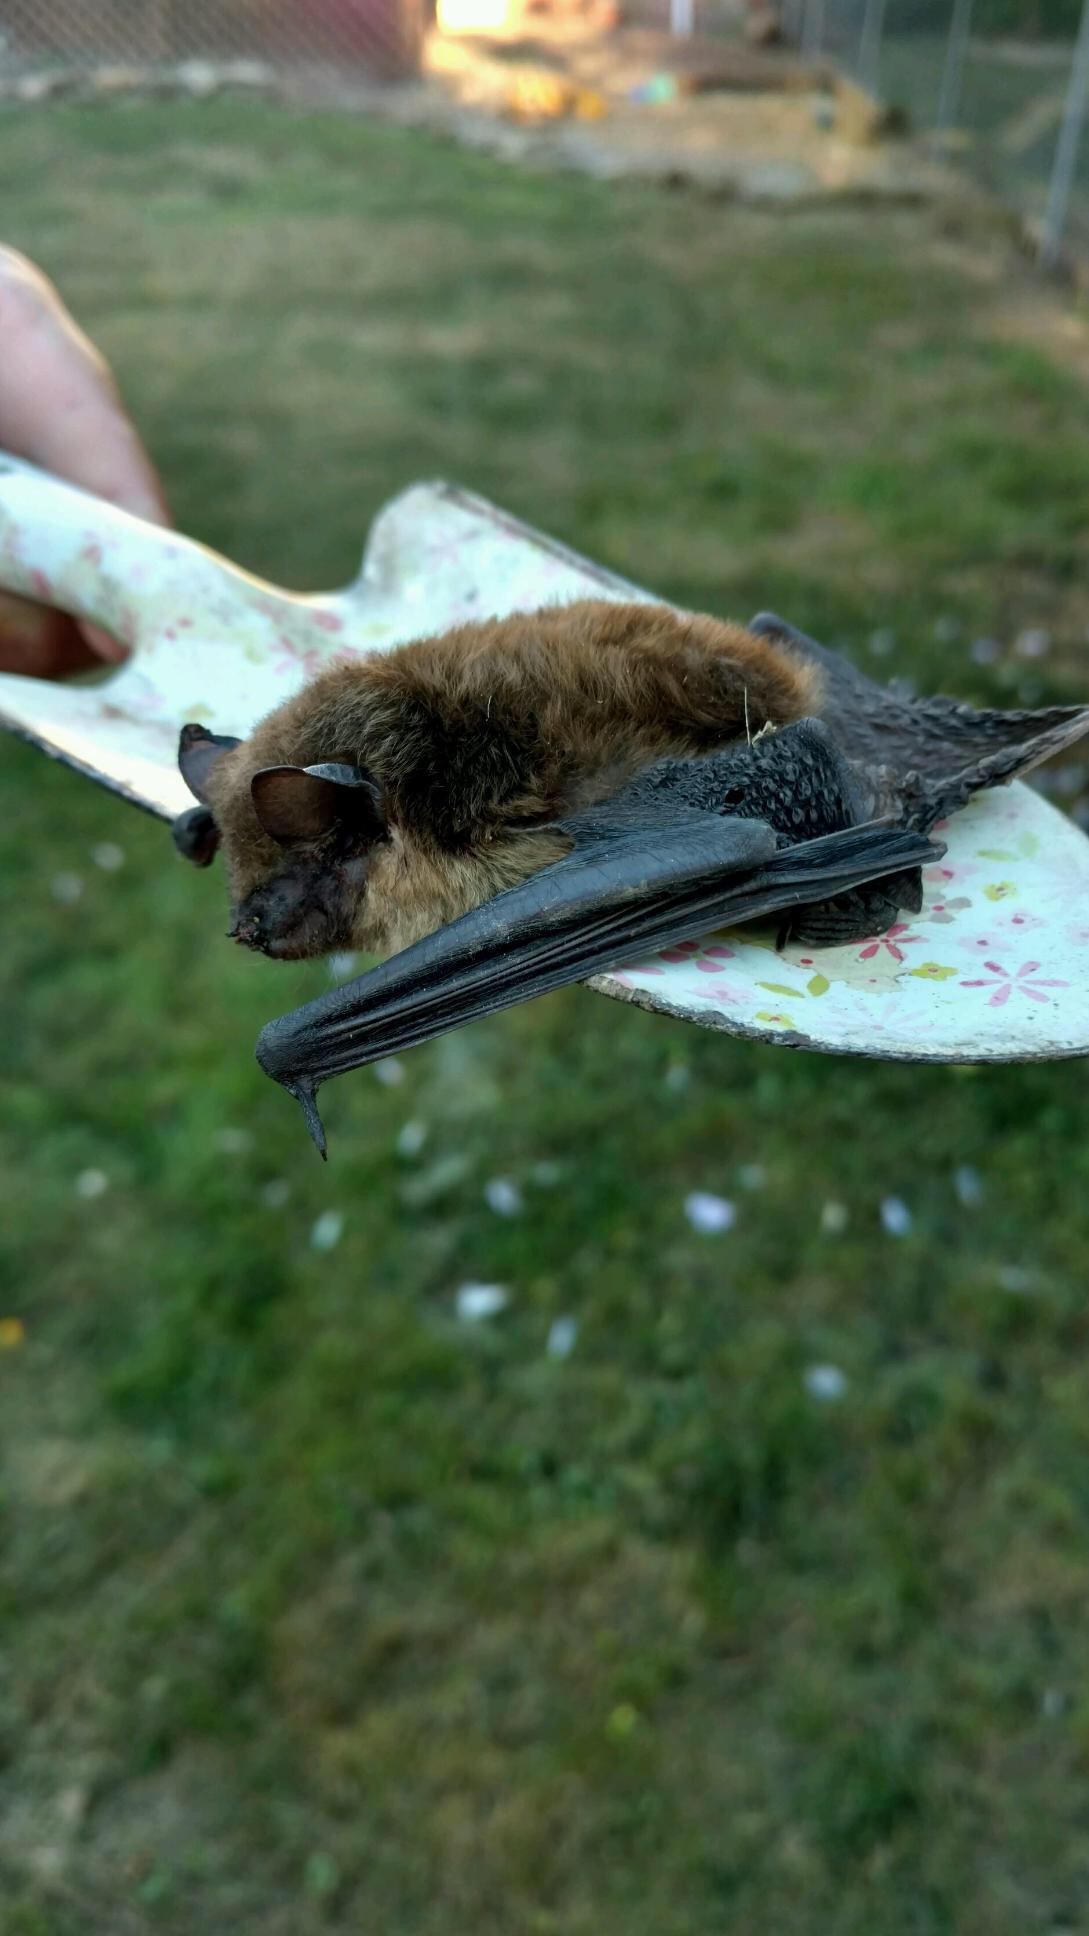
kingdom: Animalia
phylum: Chordata
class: Mammalia
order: Chiroptera
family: Vespertilionidae
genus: Eptesicus
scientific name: Eptesicus fuscus
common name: Big brown bat
